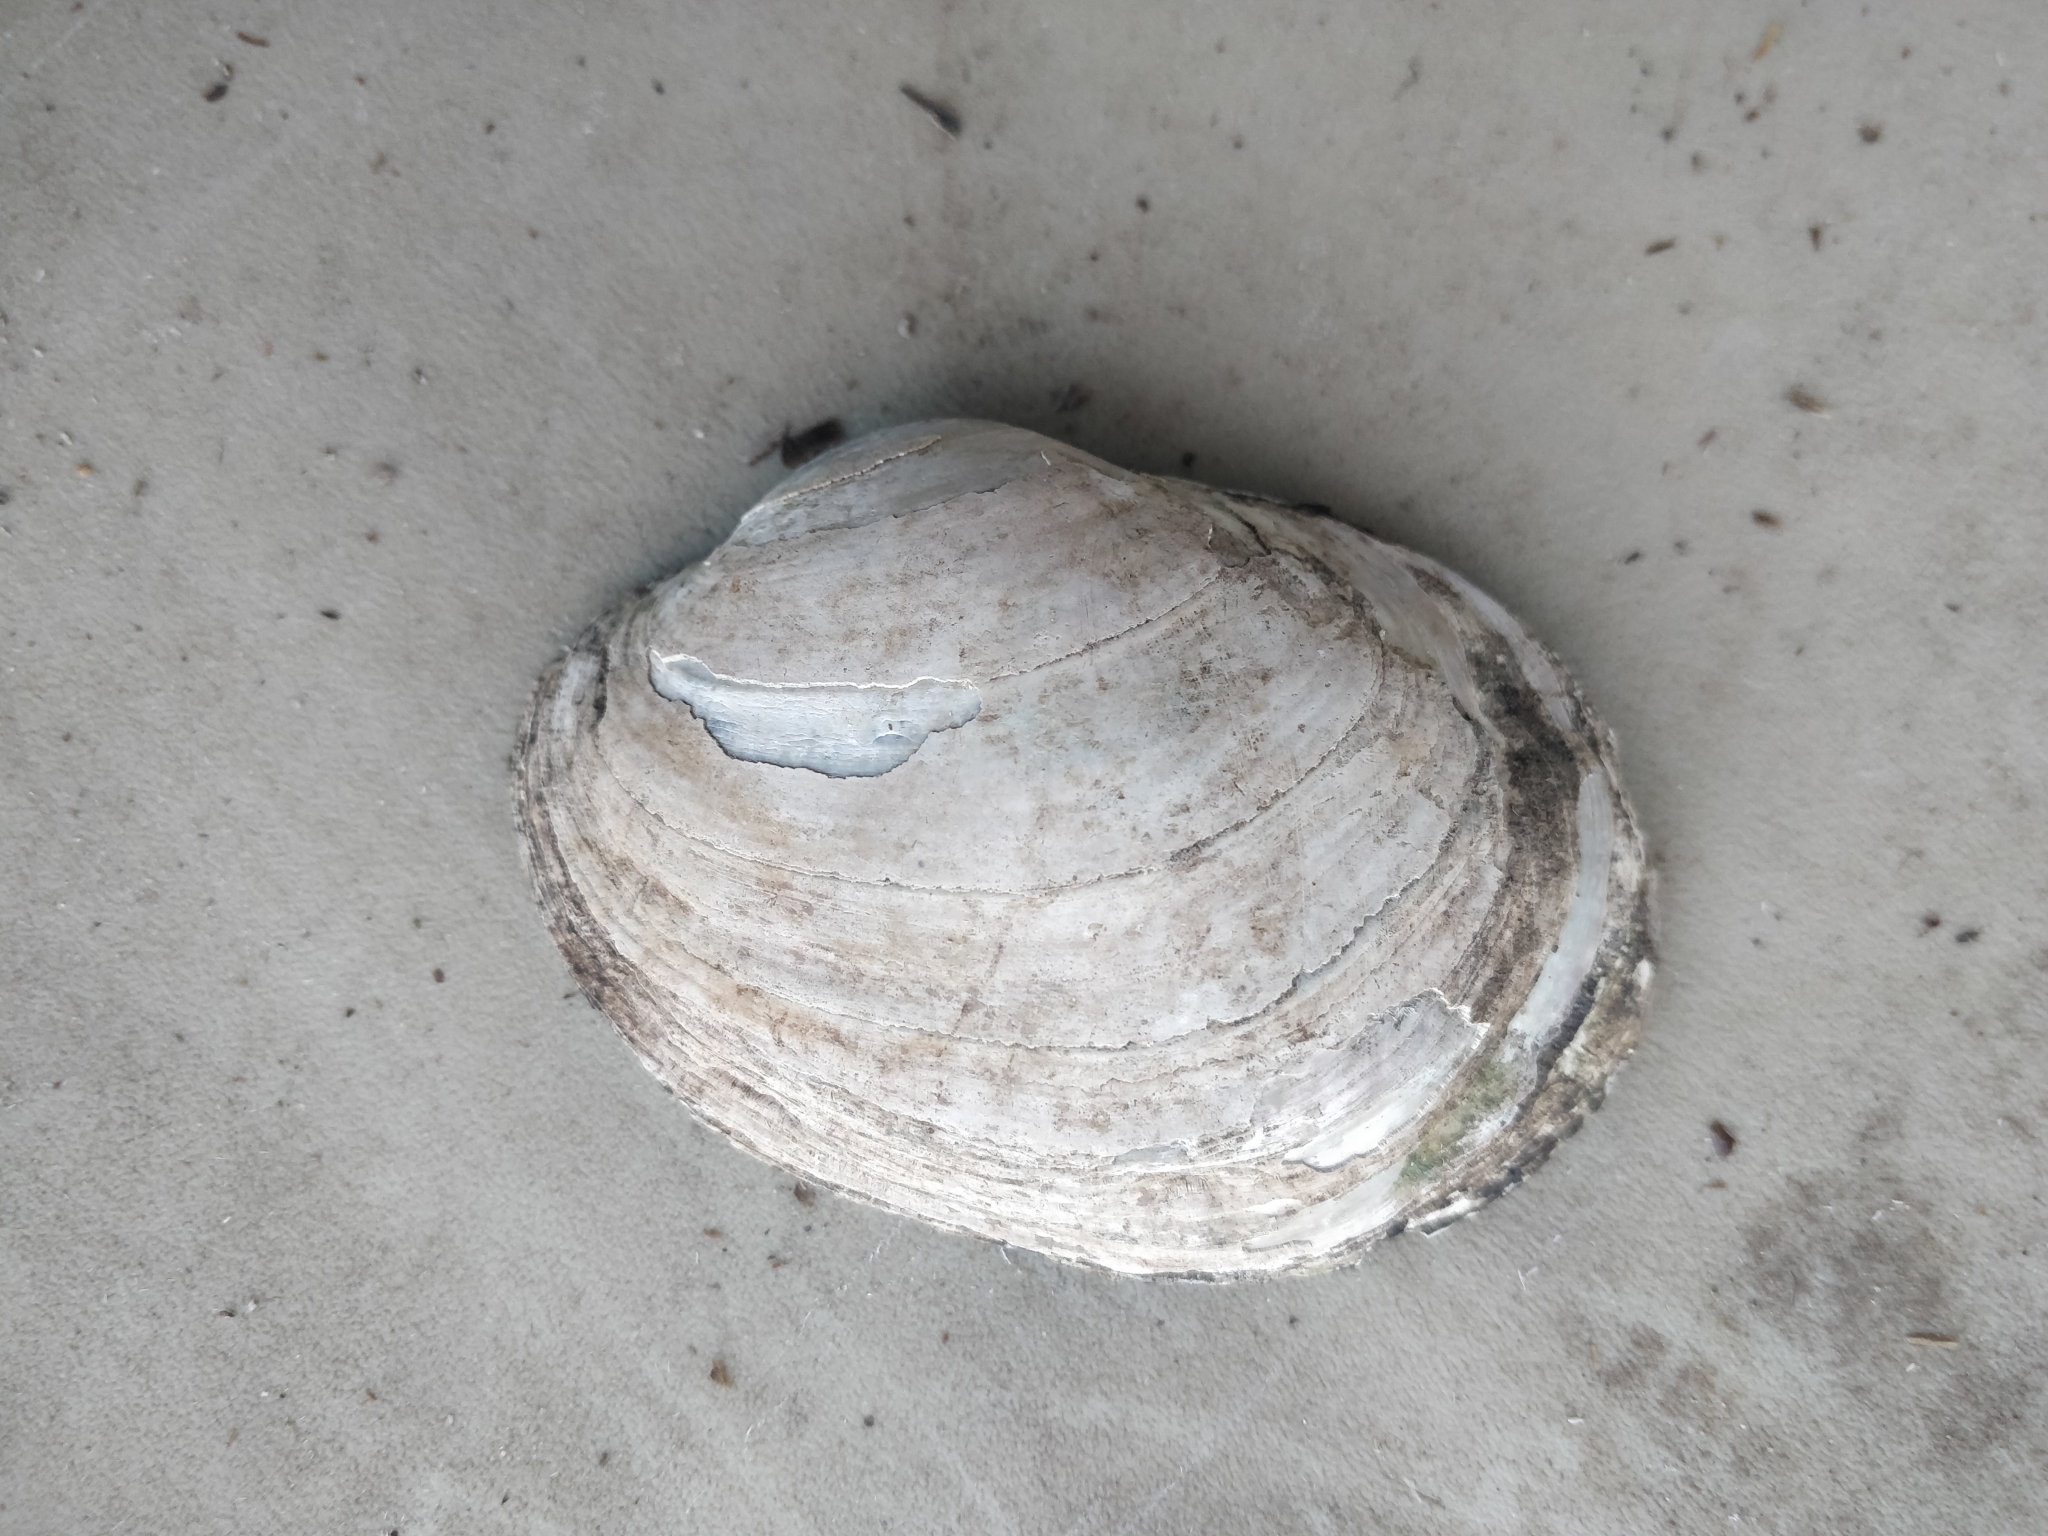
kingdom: Animalia
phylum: Mollusca
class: Bivalvia
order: Unionida
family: Unionidae
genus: Lampsilis
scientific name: Lampsilis cardium
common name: Plain pocketbook
